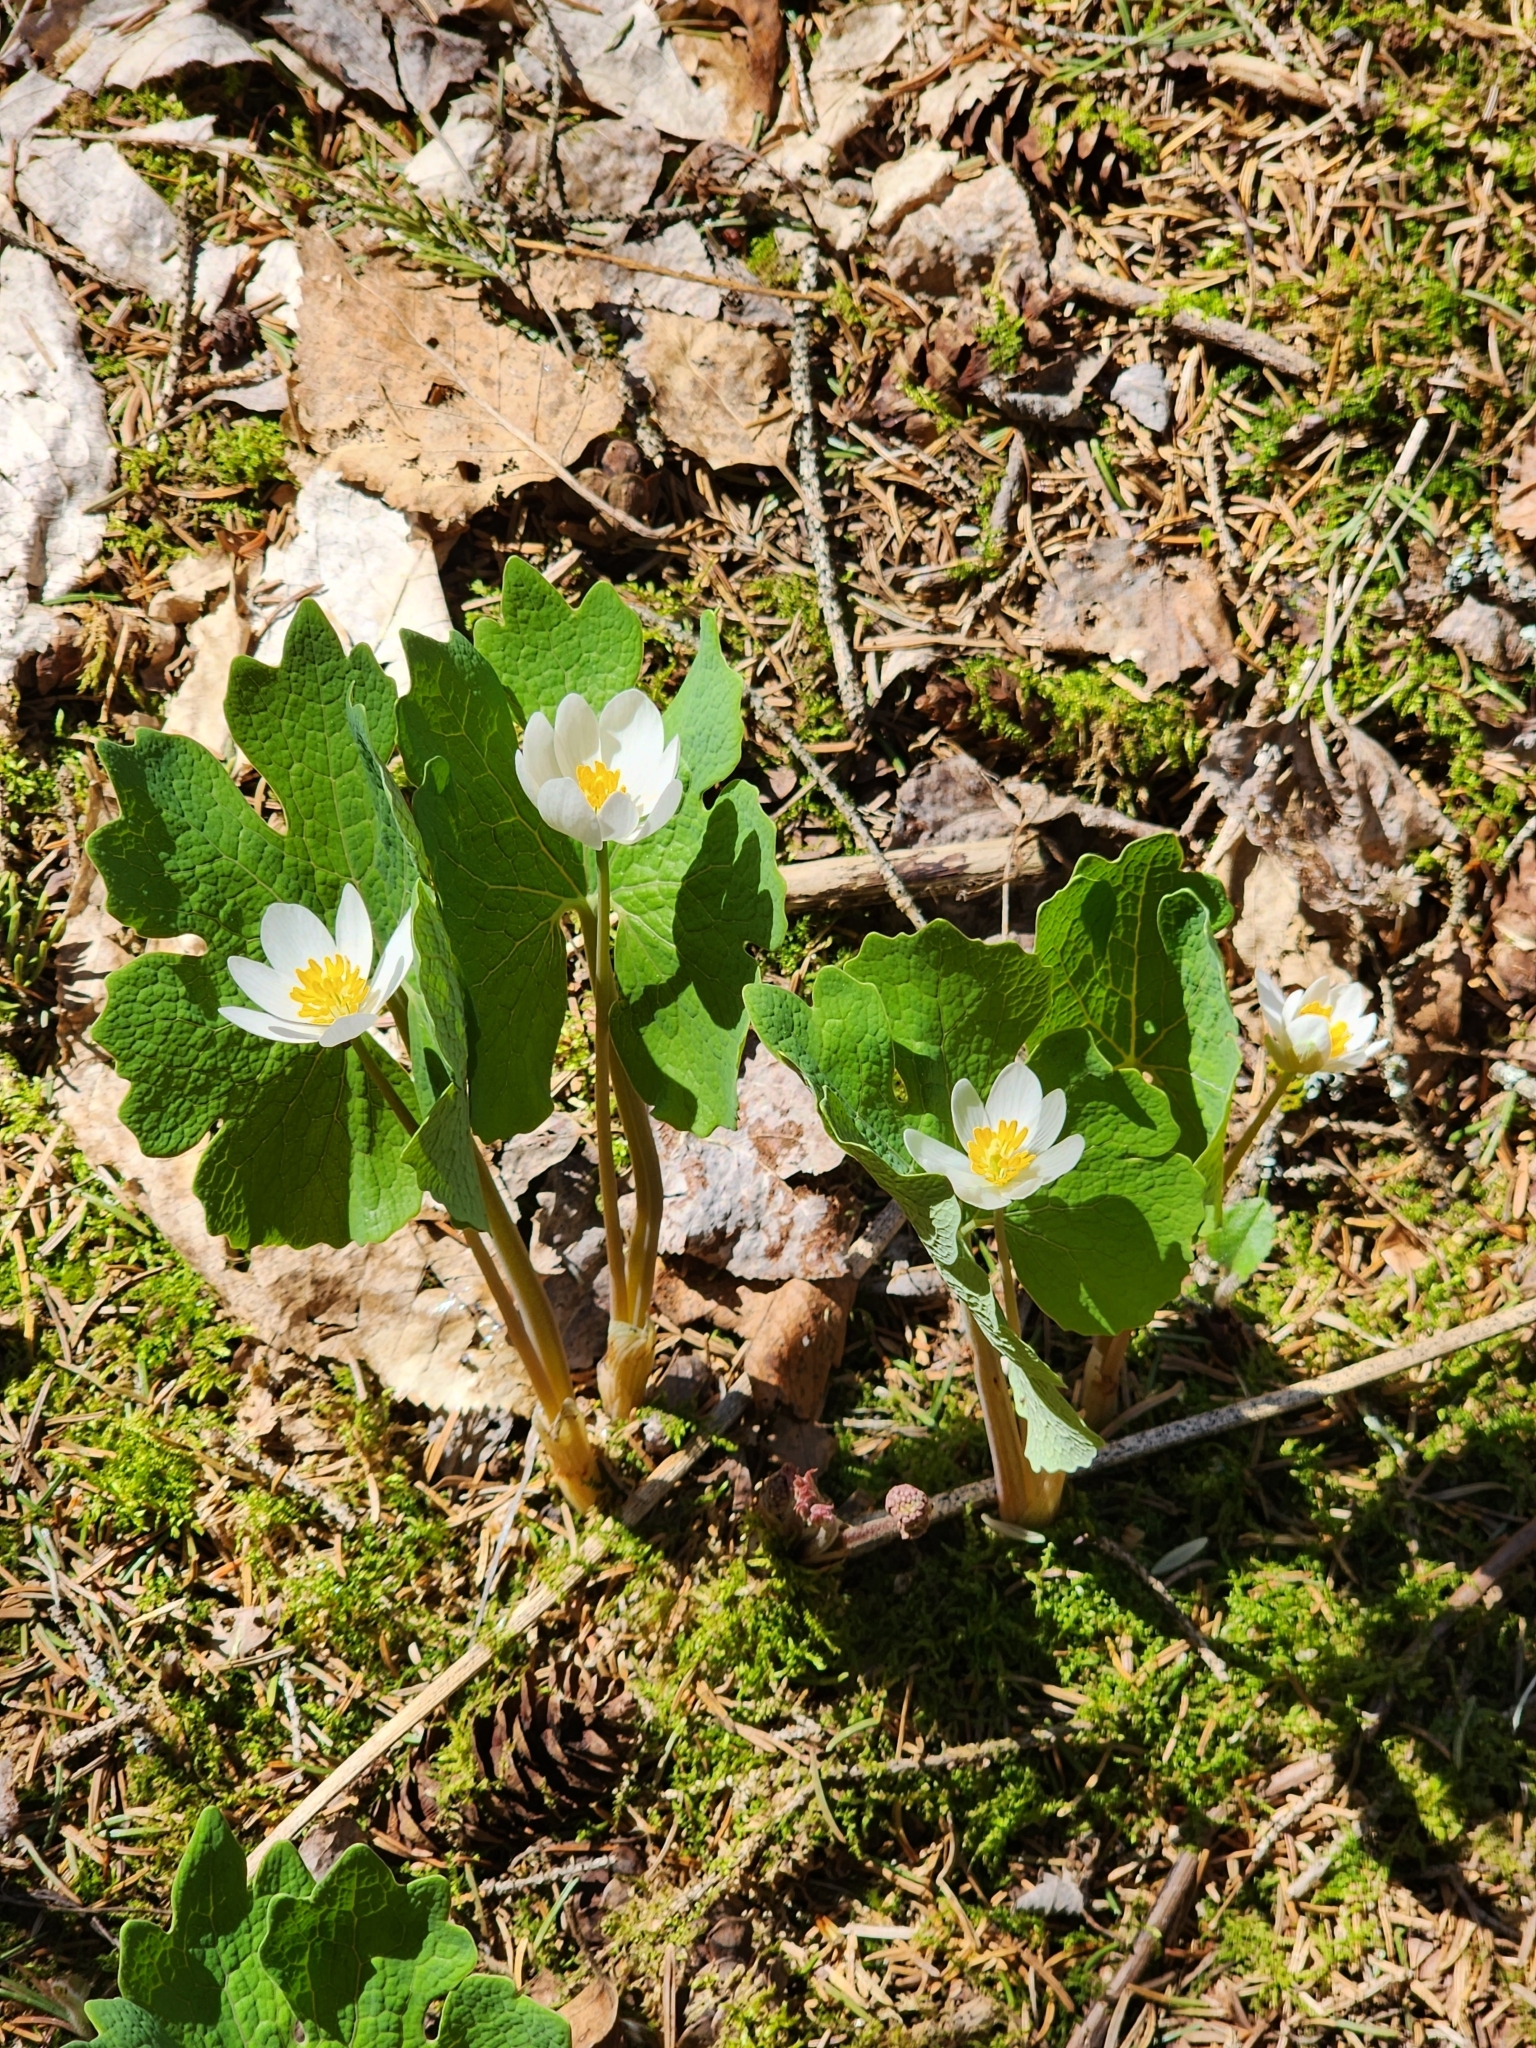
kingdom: Plantae
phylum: Tracheophyta
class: Magnoliopsida
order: Ranunculales
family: Papaveraceae
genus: Sanguinaria
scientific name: Sanguinaria canadensis
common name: Bloodroot
